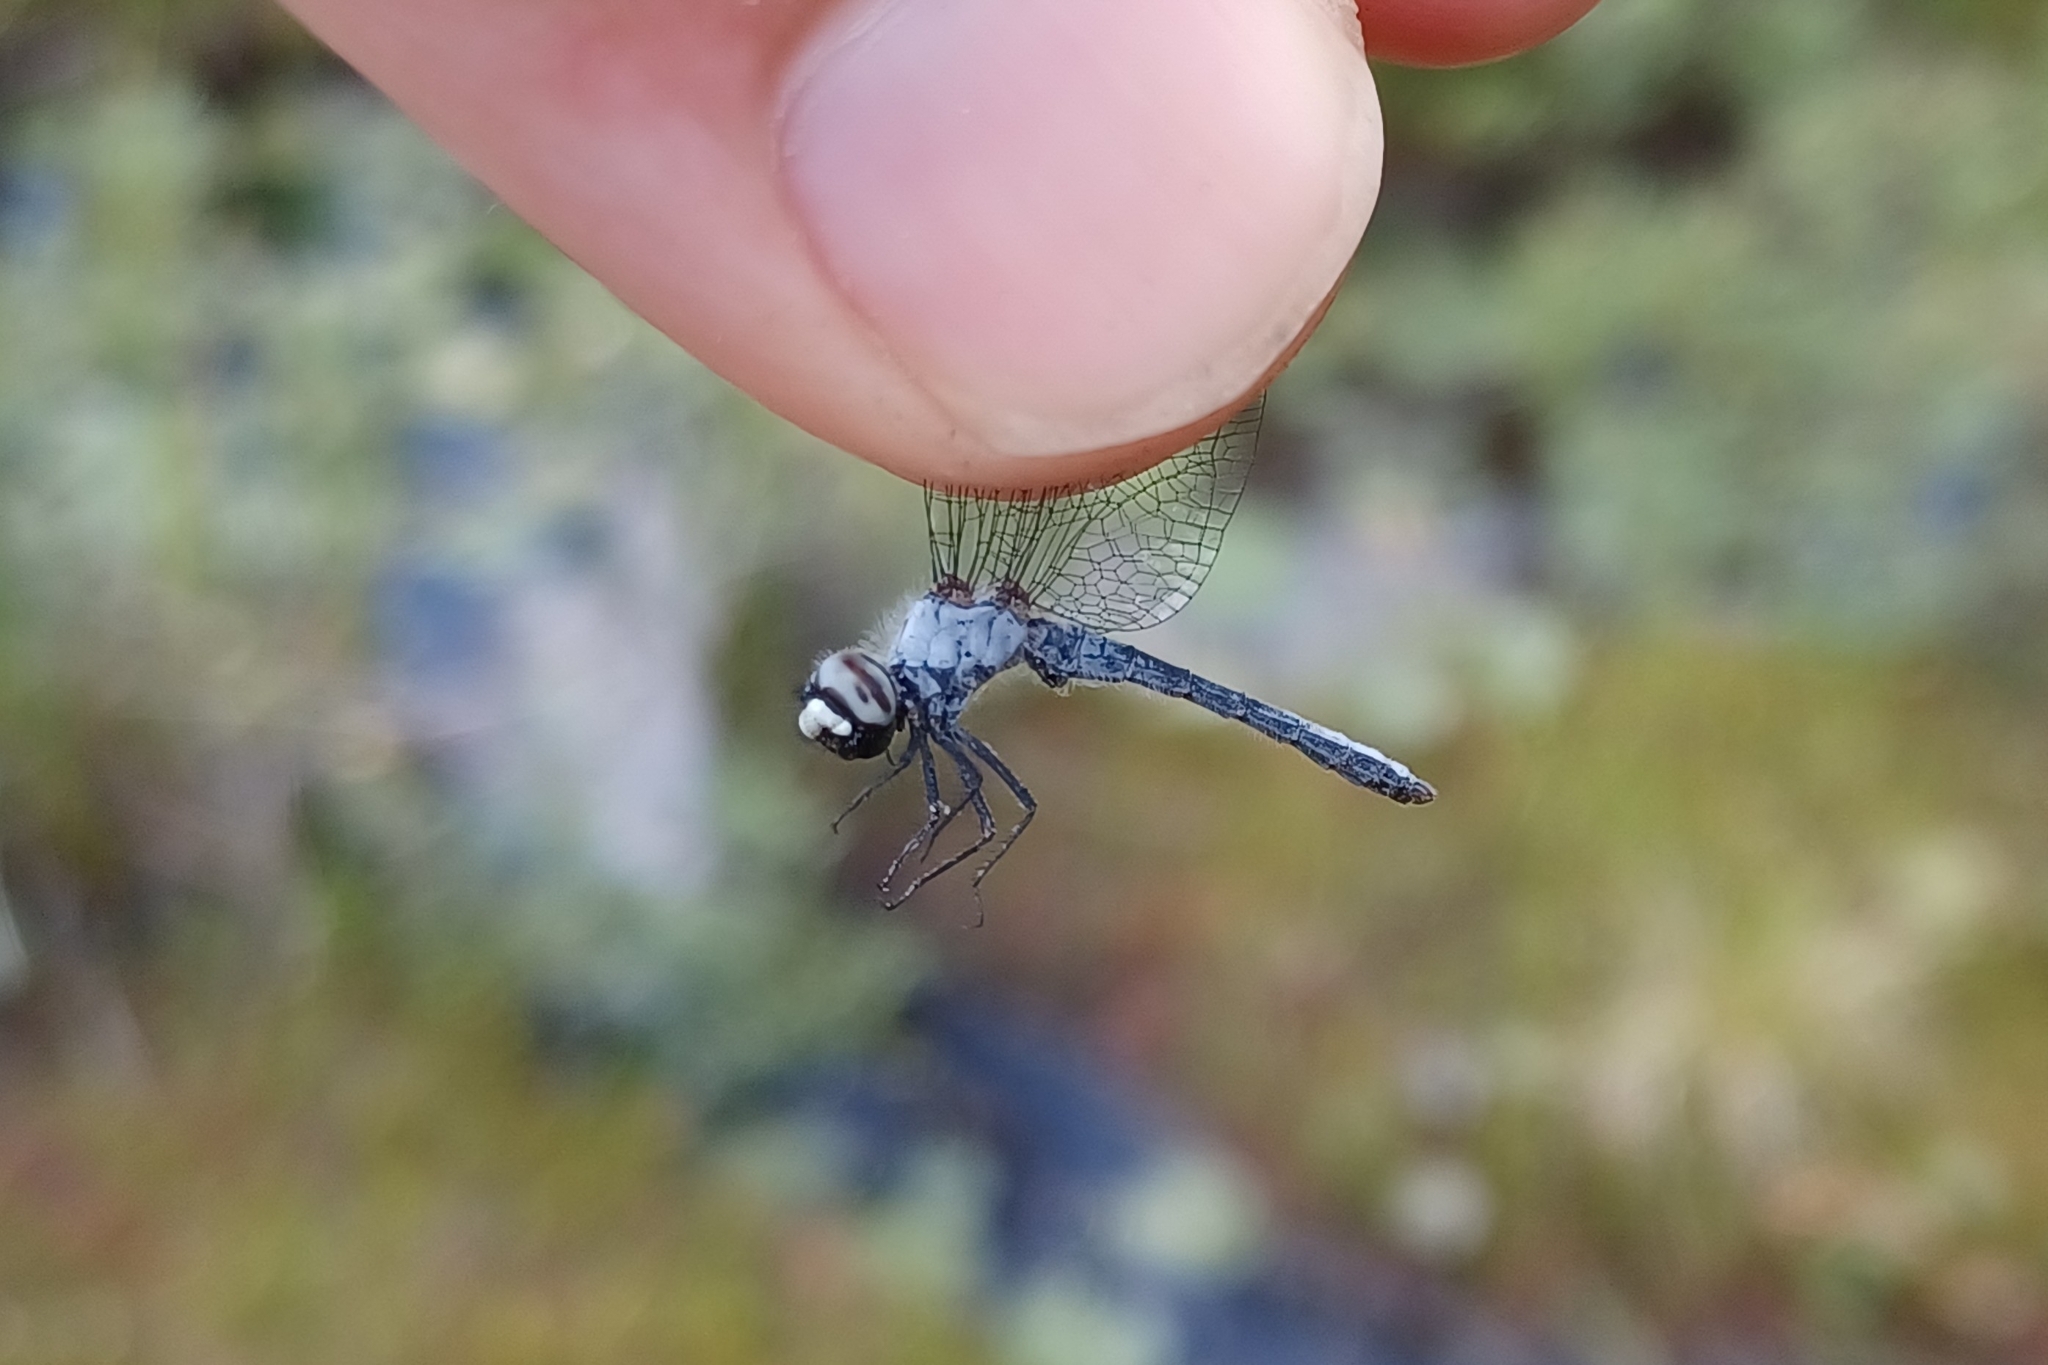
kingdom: Animalia
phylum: Arthropoda
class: Insecta
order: Odonata
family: Libellulidae
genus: Nannothemis
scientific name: Nannothemis bella
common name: Elfin skimmer
